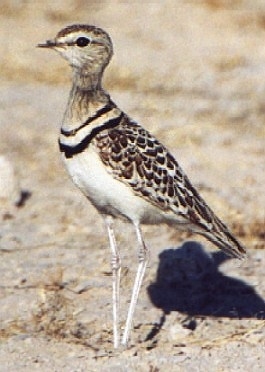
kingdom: Animalia
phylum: Chordata
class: Aves
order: Charadriiformes
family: Glareolidae
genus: Rhinoptilus
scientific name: Rhinoptilus africanus
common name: Double-banded courser
